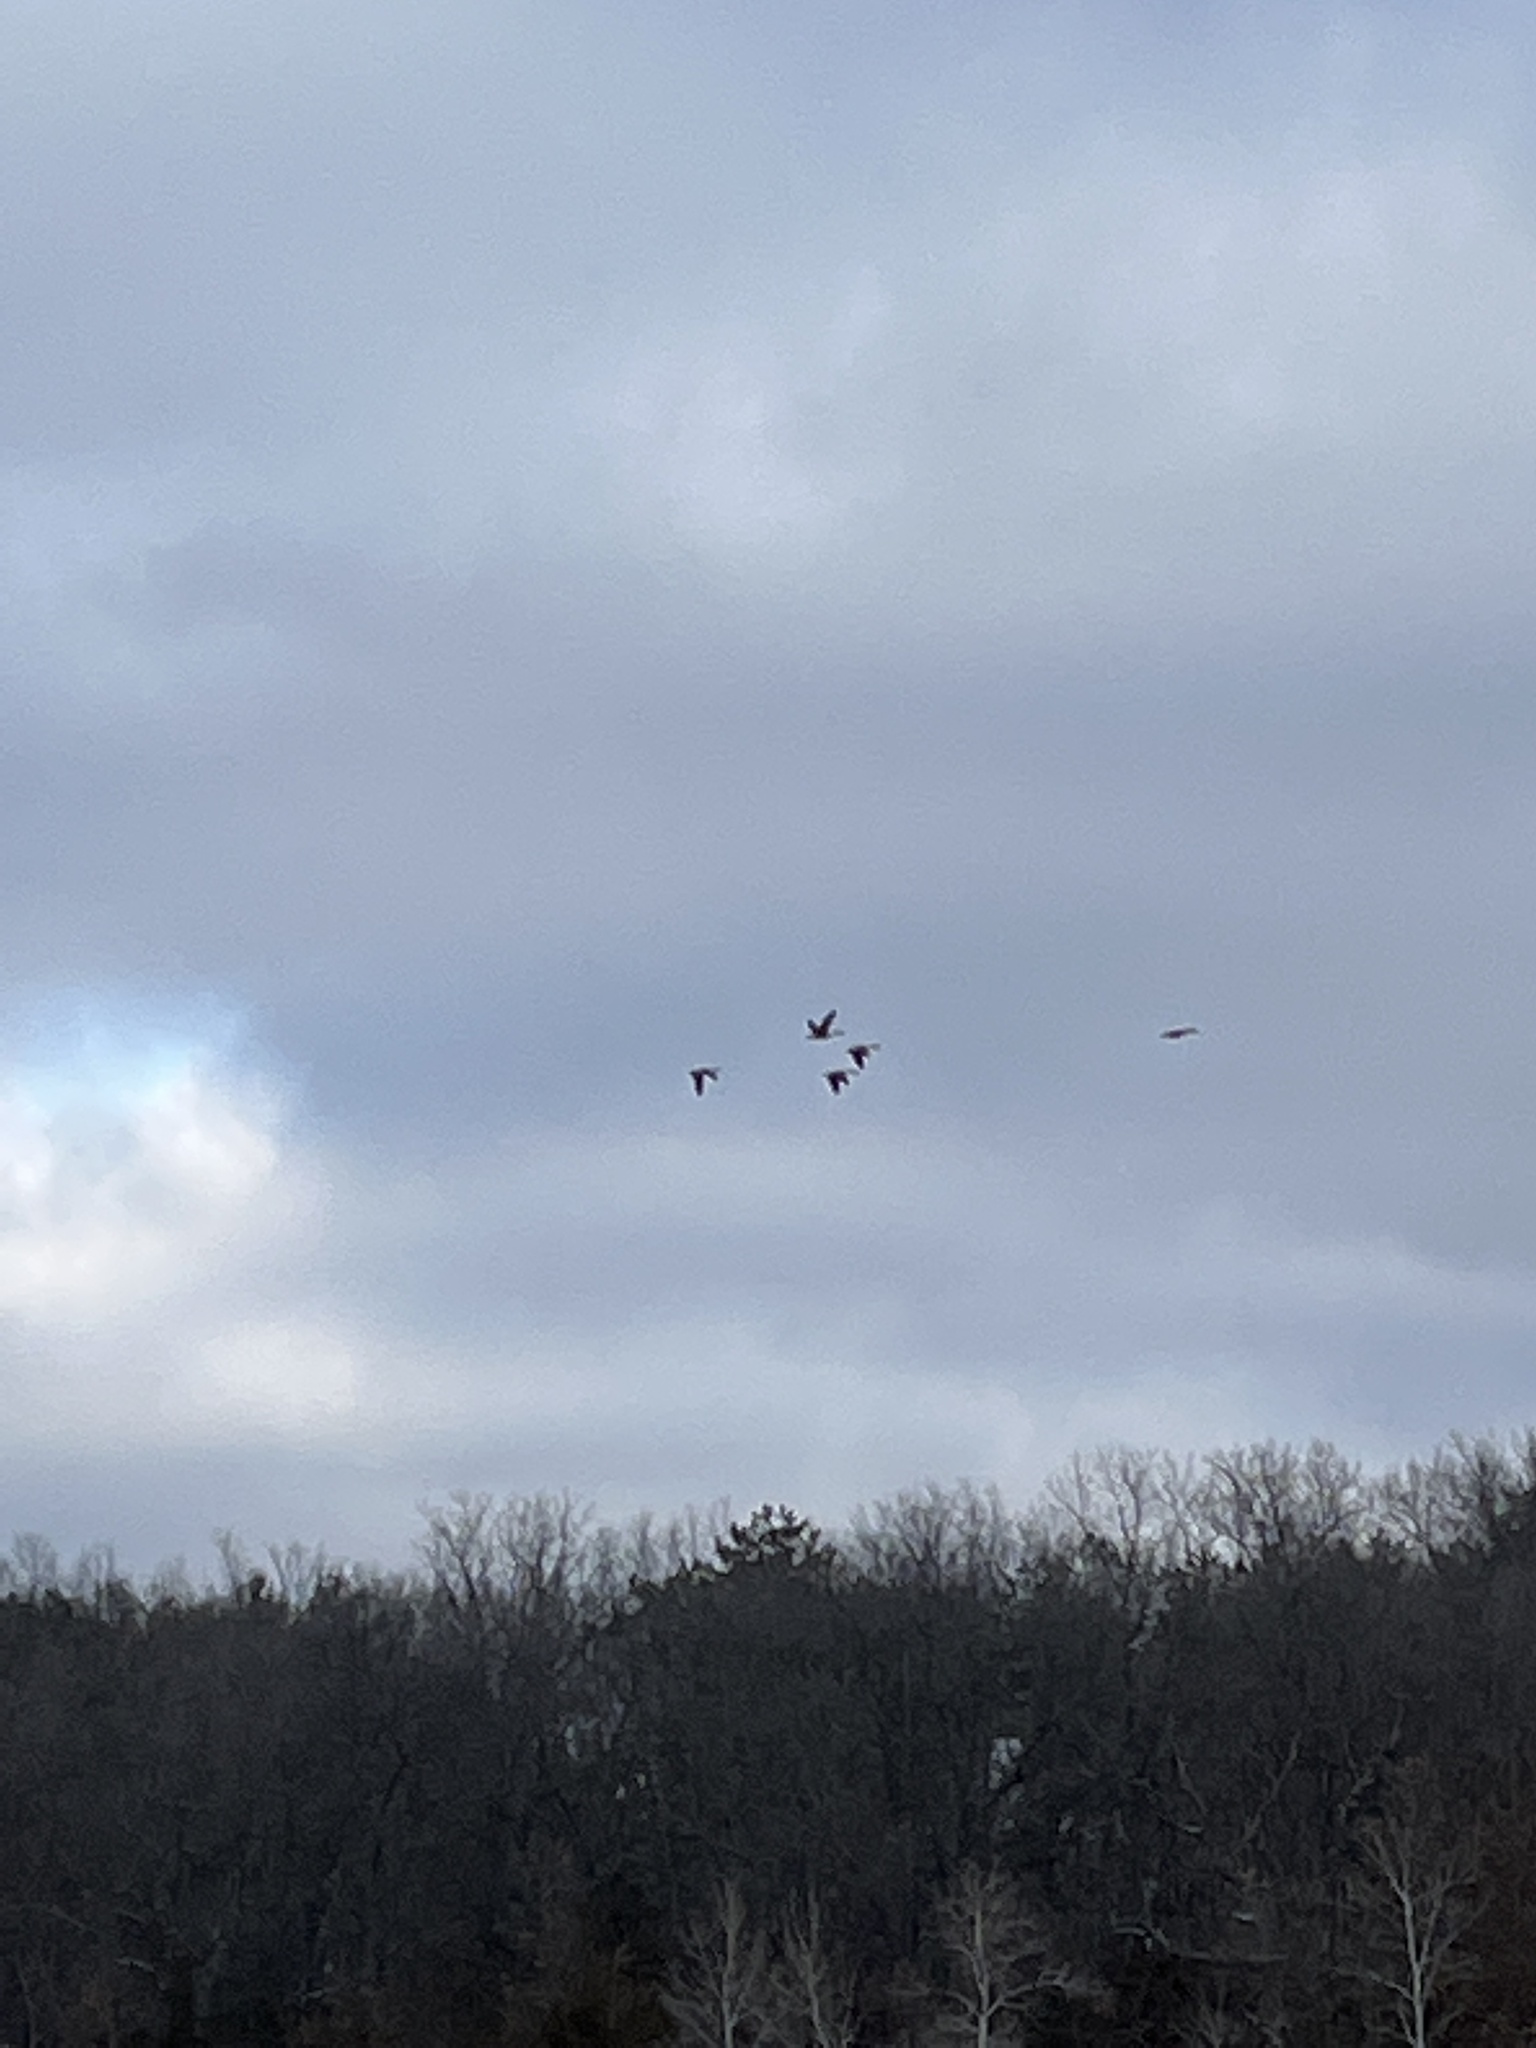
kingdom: Animalia
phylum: Chordata
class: Aves
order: Anseriformes
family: Anatidae
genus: Branta
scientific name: Branta canadensis
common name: Canada goose
